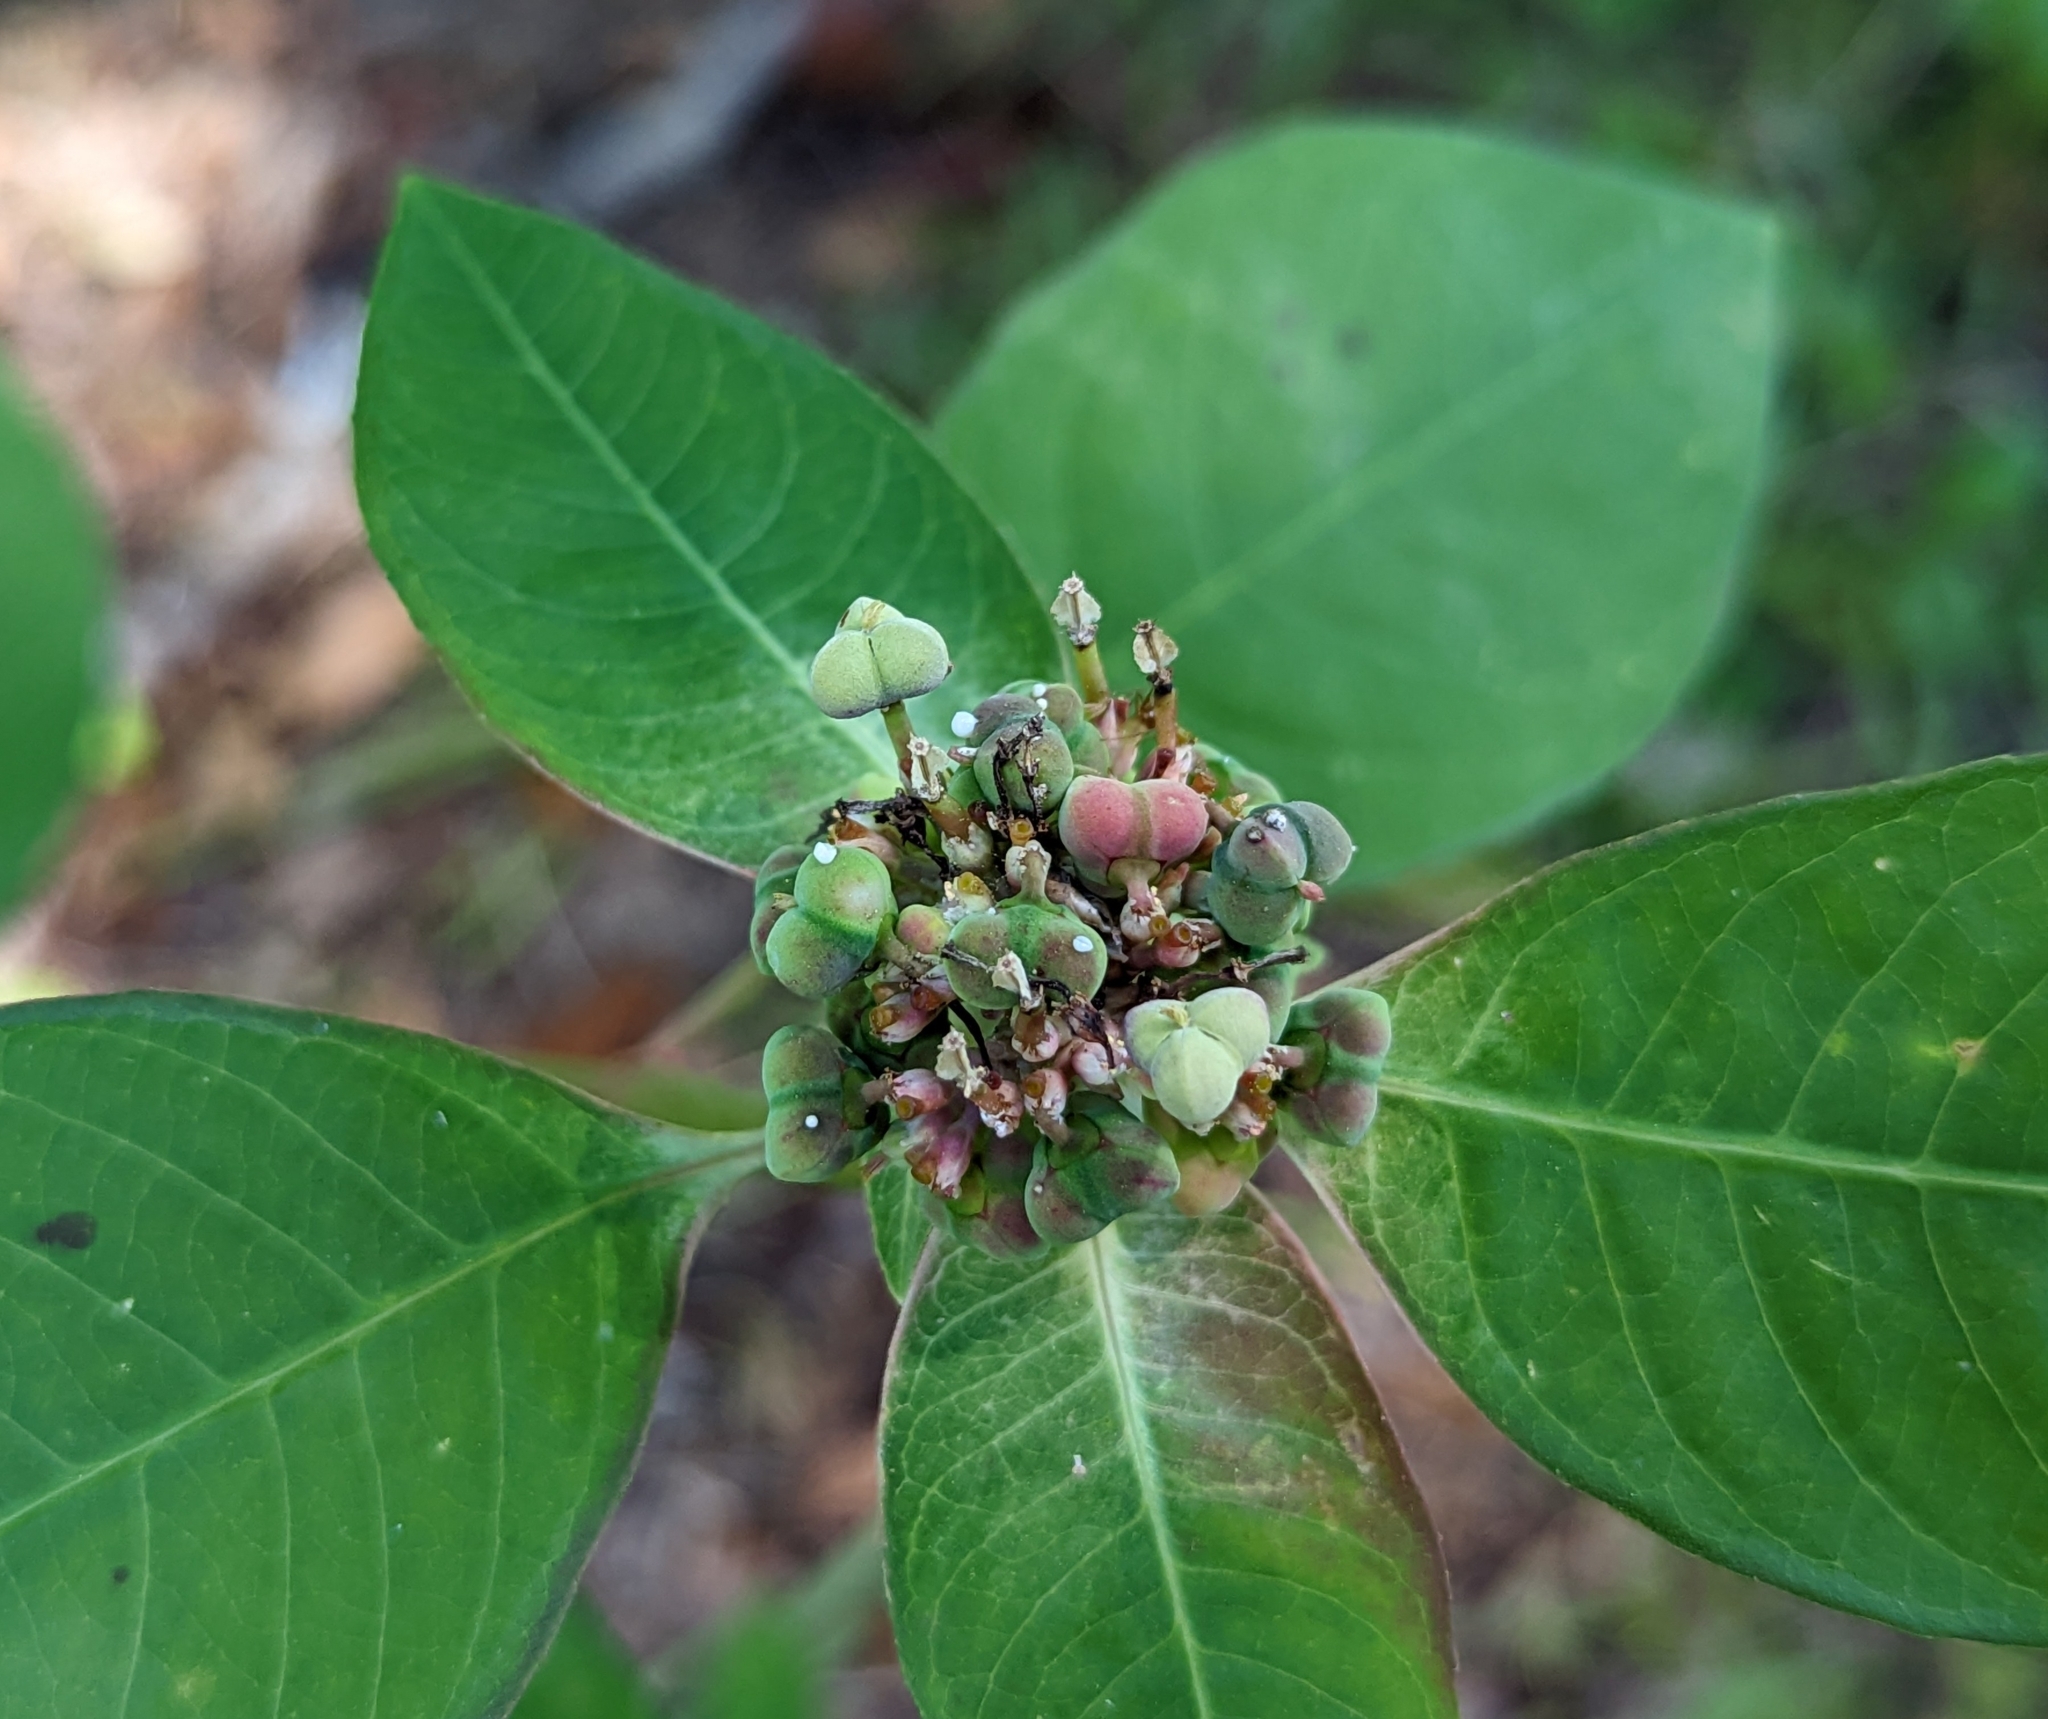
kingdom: Plantae
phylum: Tracheophyta
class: Magnoliopsida
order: Malpighiales
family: Euphorbiaceae
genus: Euphorbia
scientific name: Euphorbia heterophylla
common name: Mexican fireplant
